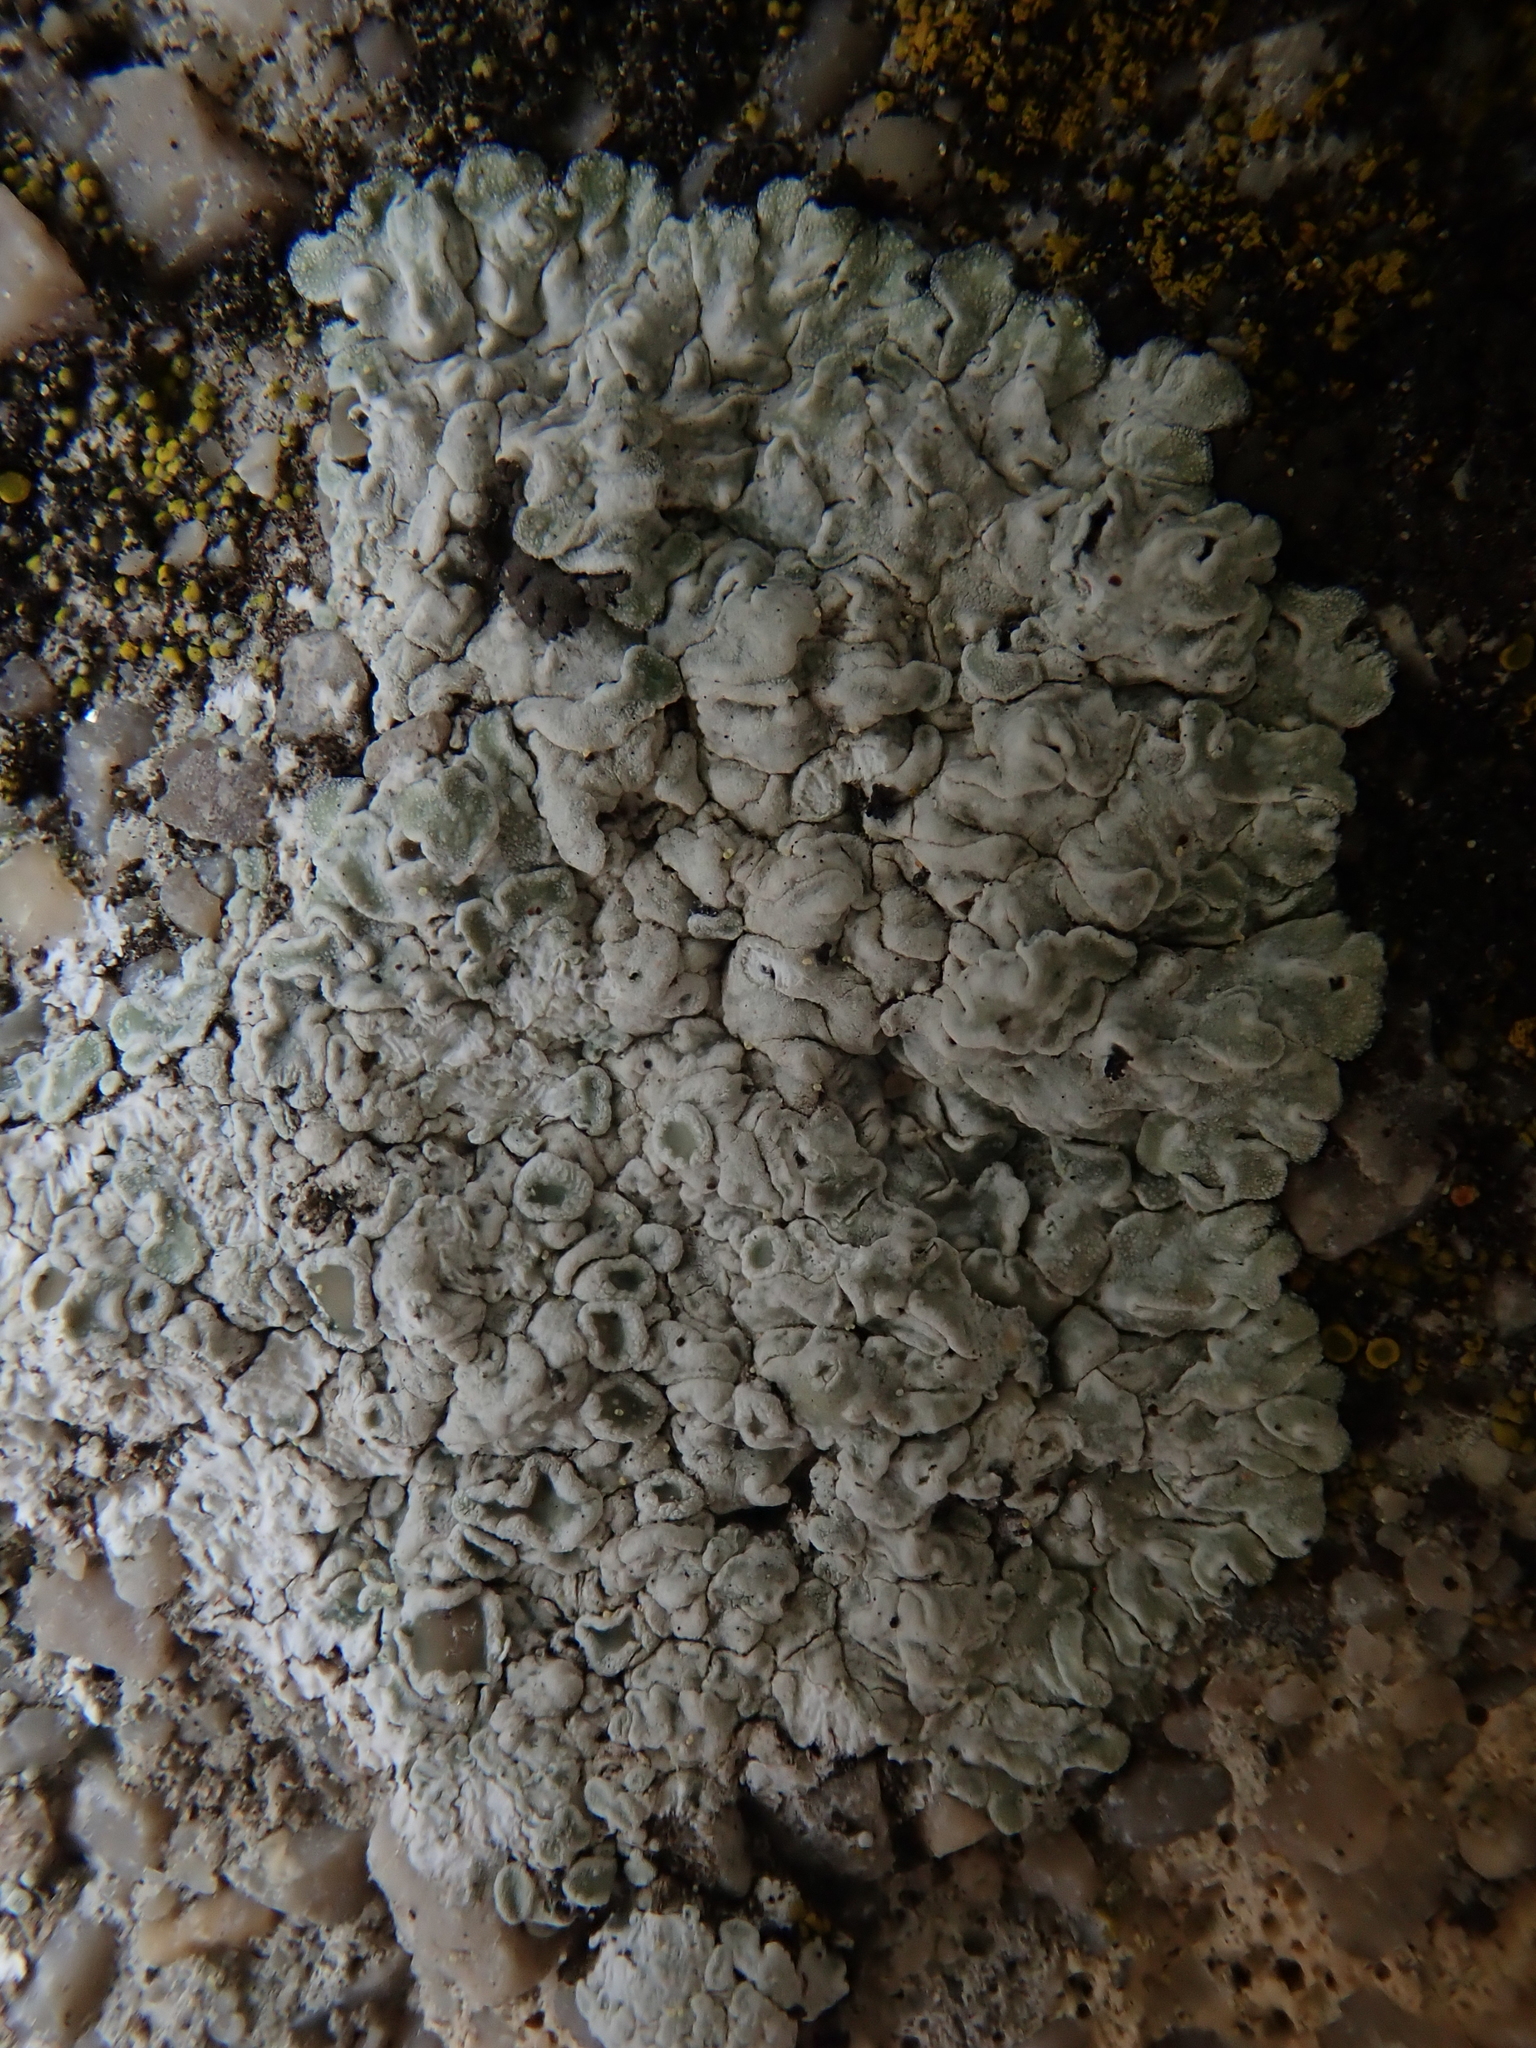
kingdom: Fungi
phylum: Ascomycota
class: Lecanoromycetes
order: Lecanorales
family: Lecanoraceae
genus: Protoparmeliopsis
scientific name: Protoparmeliopsis muralis
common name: Stonewall rim lichen
